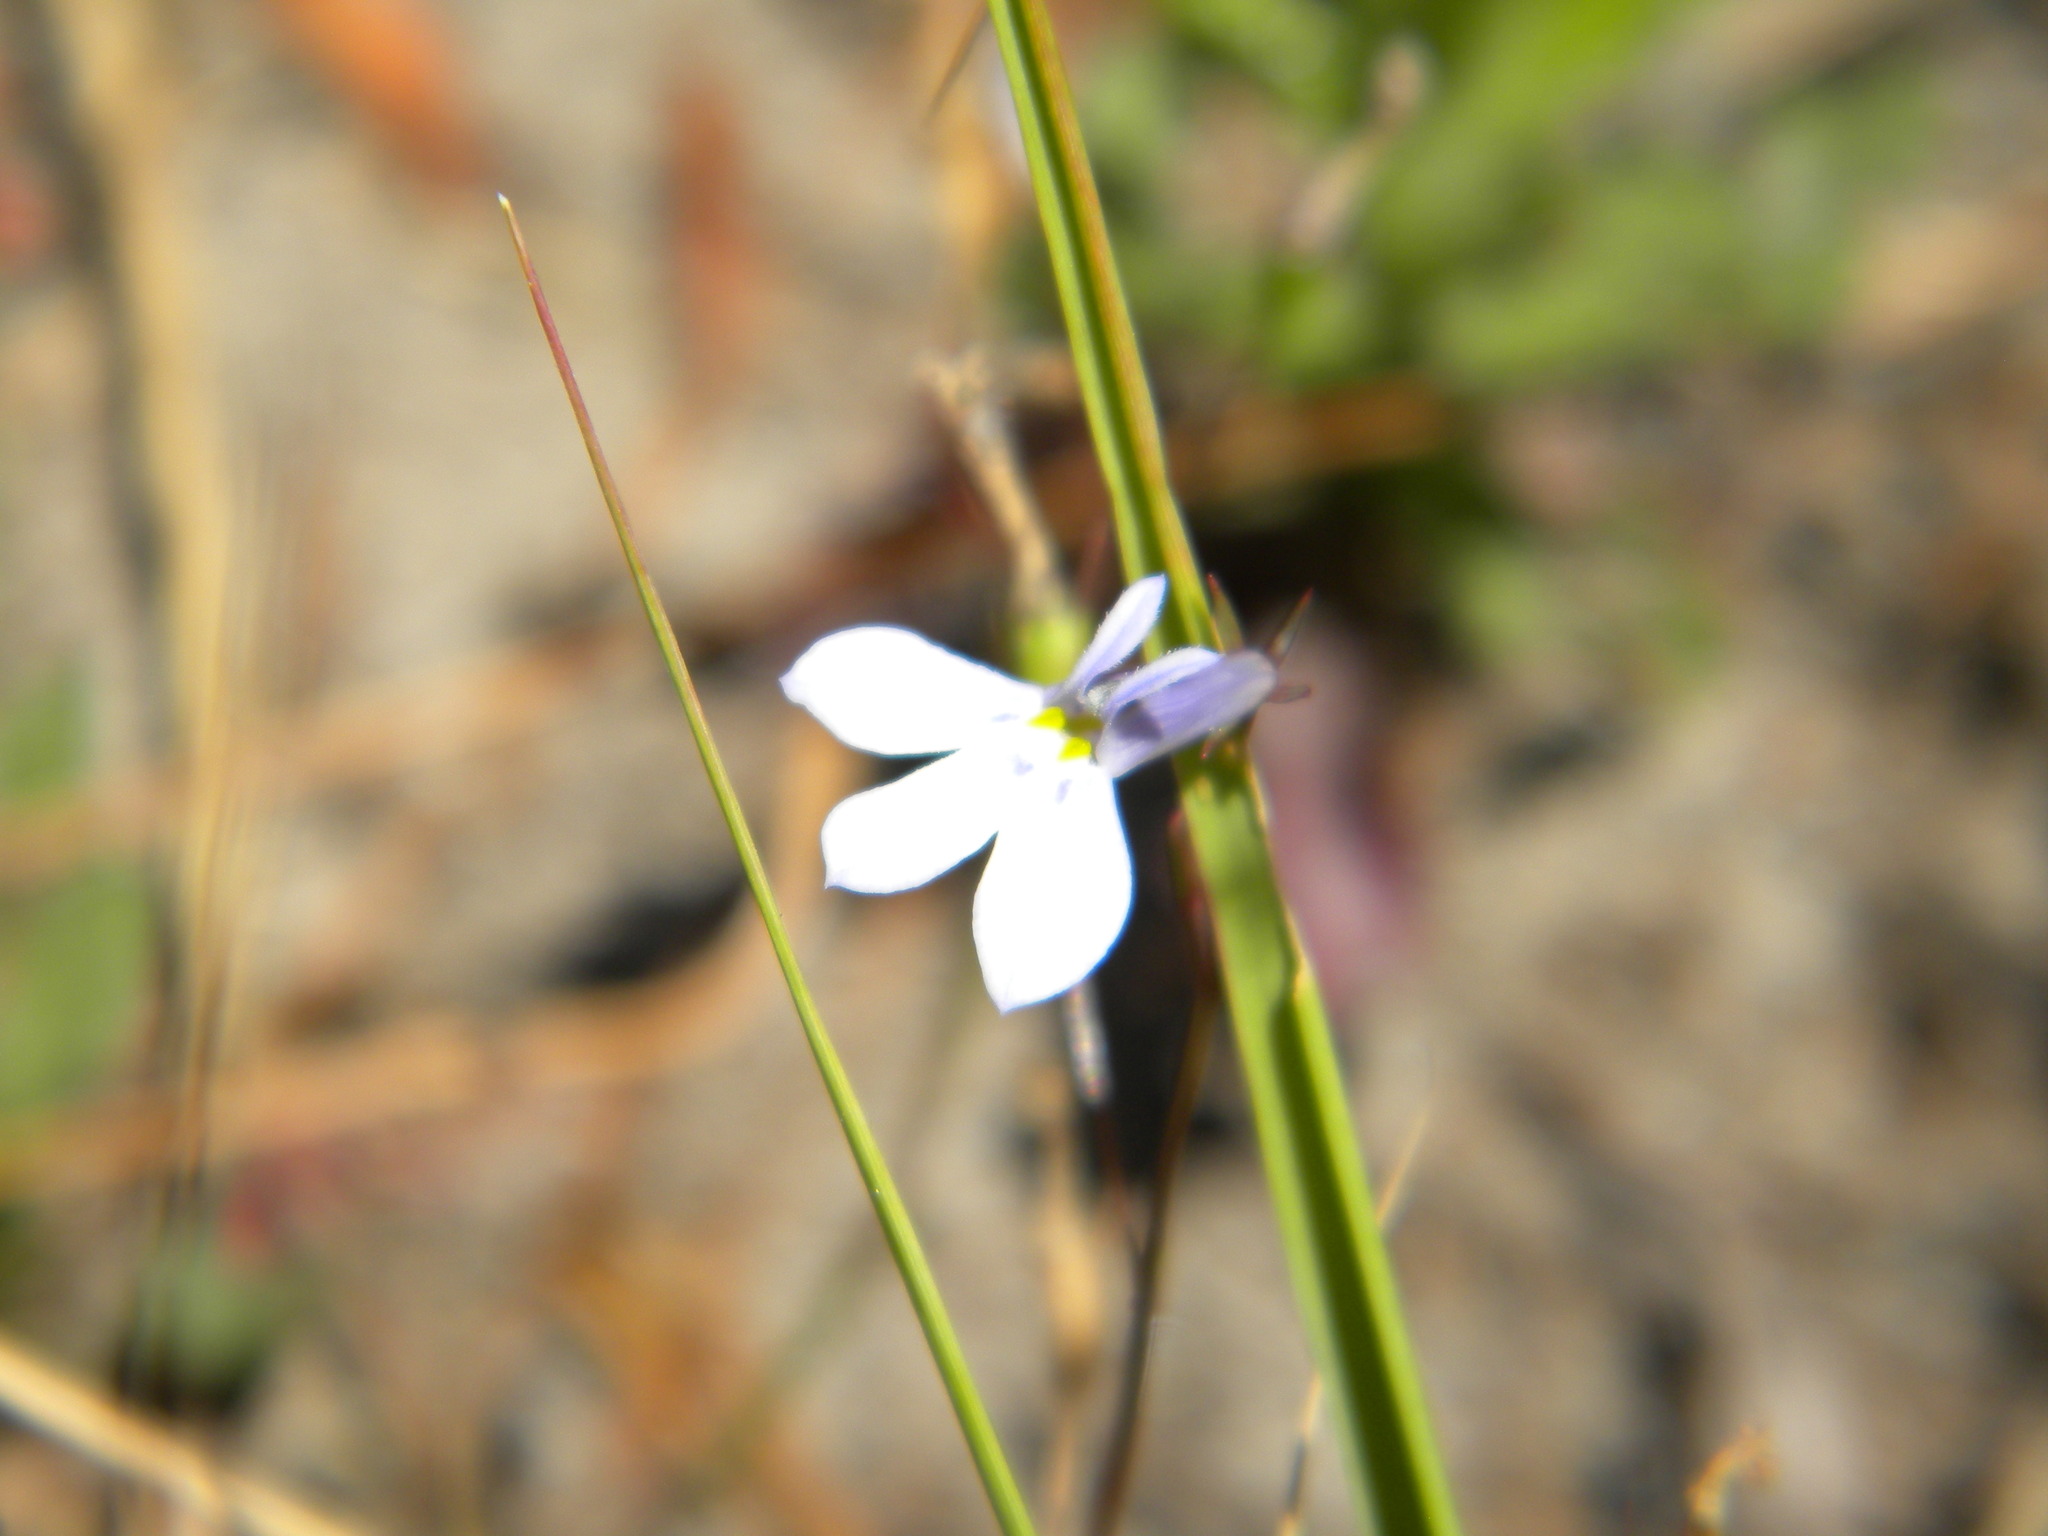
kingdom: Plantae
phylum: Tracheophyta
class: Magnoliopsida
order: Asterales
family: Campanulaceae
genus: Lobelia
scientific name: Lobelia erinus
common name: Edging lobelia
